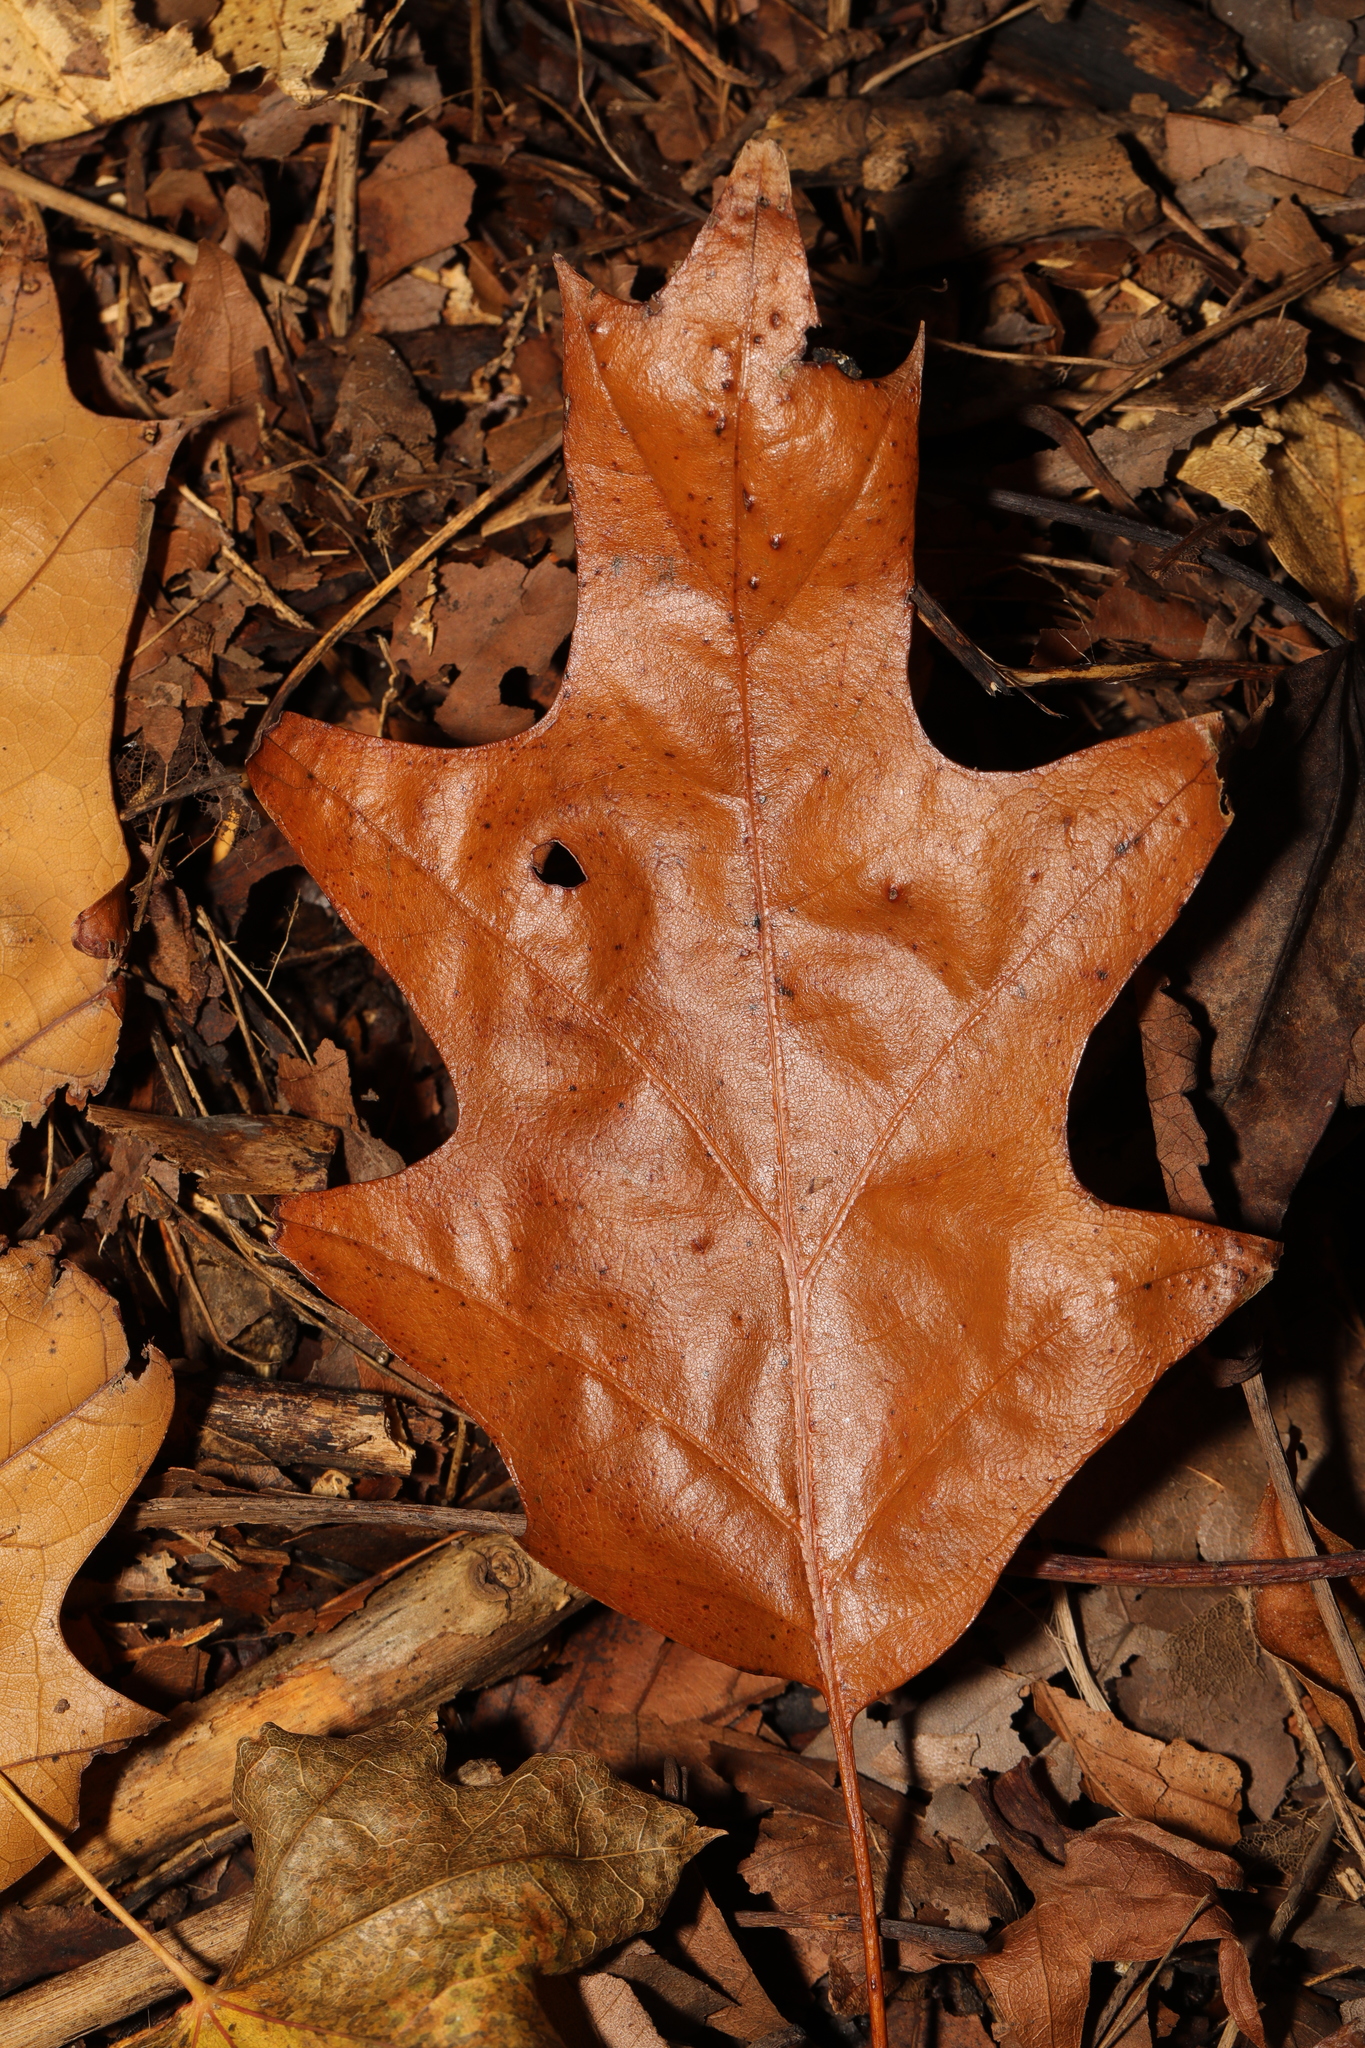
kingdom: Plantae
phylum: Tracheophyta
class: Magnoliopsida
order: Fagales
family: Fagaceae
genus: Quercus
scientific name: Quercus rubra
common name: Red oak
